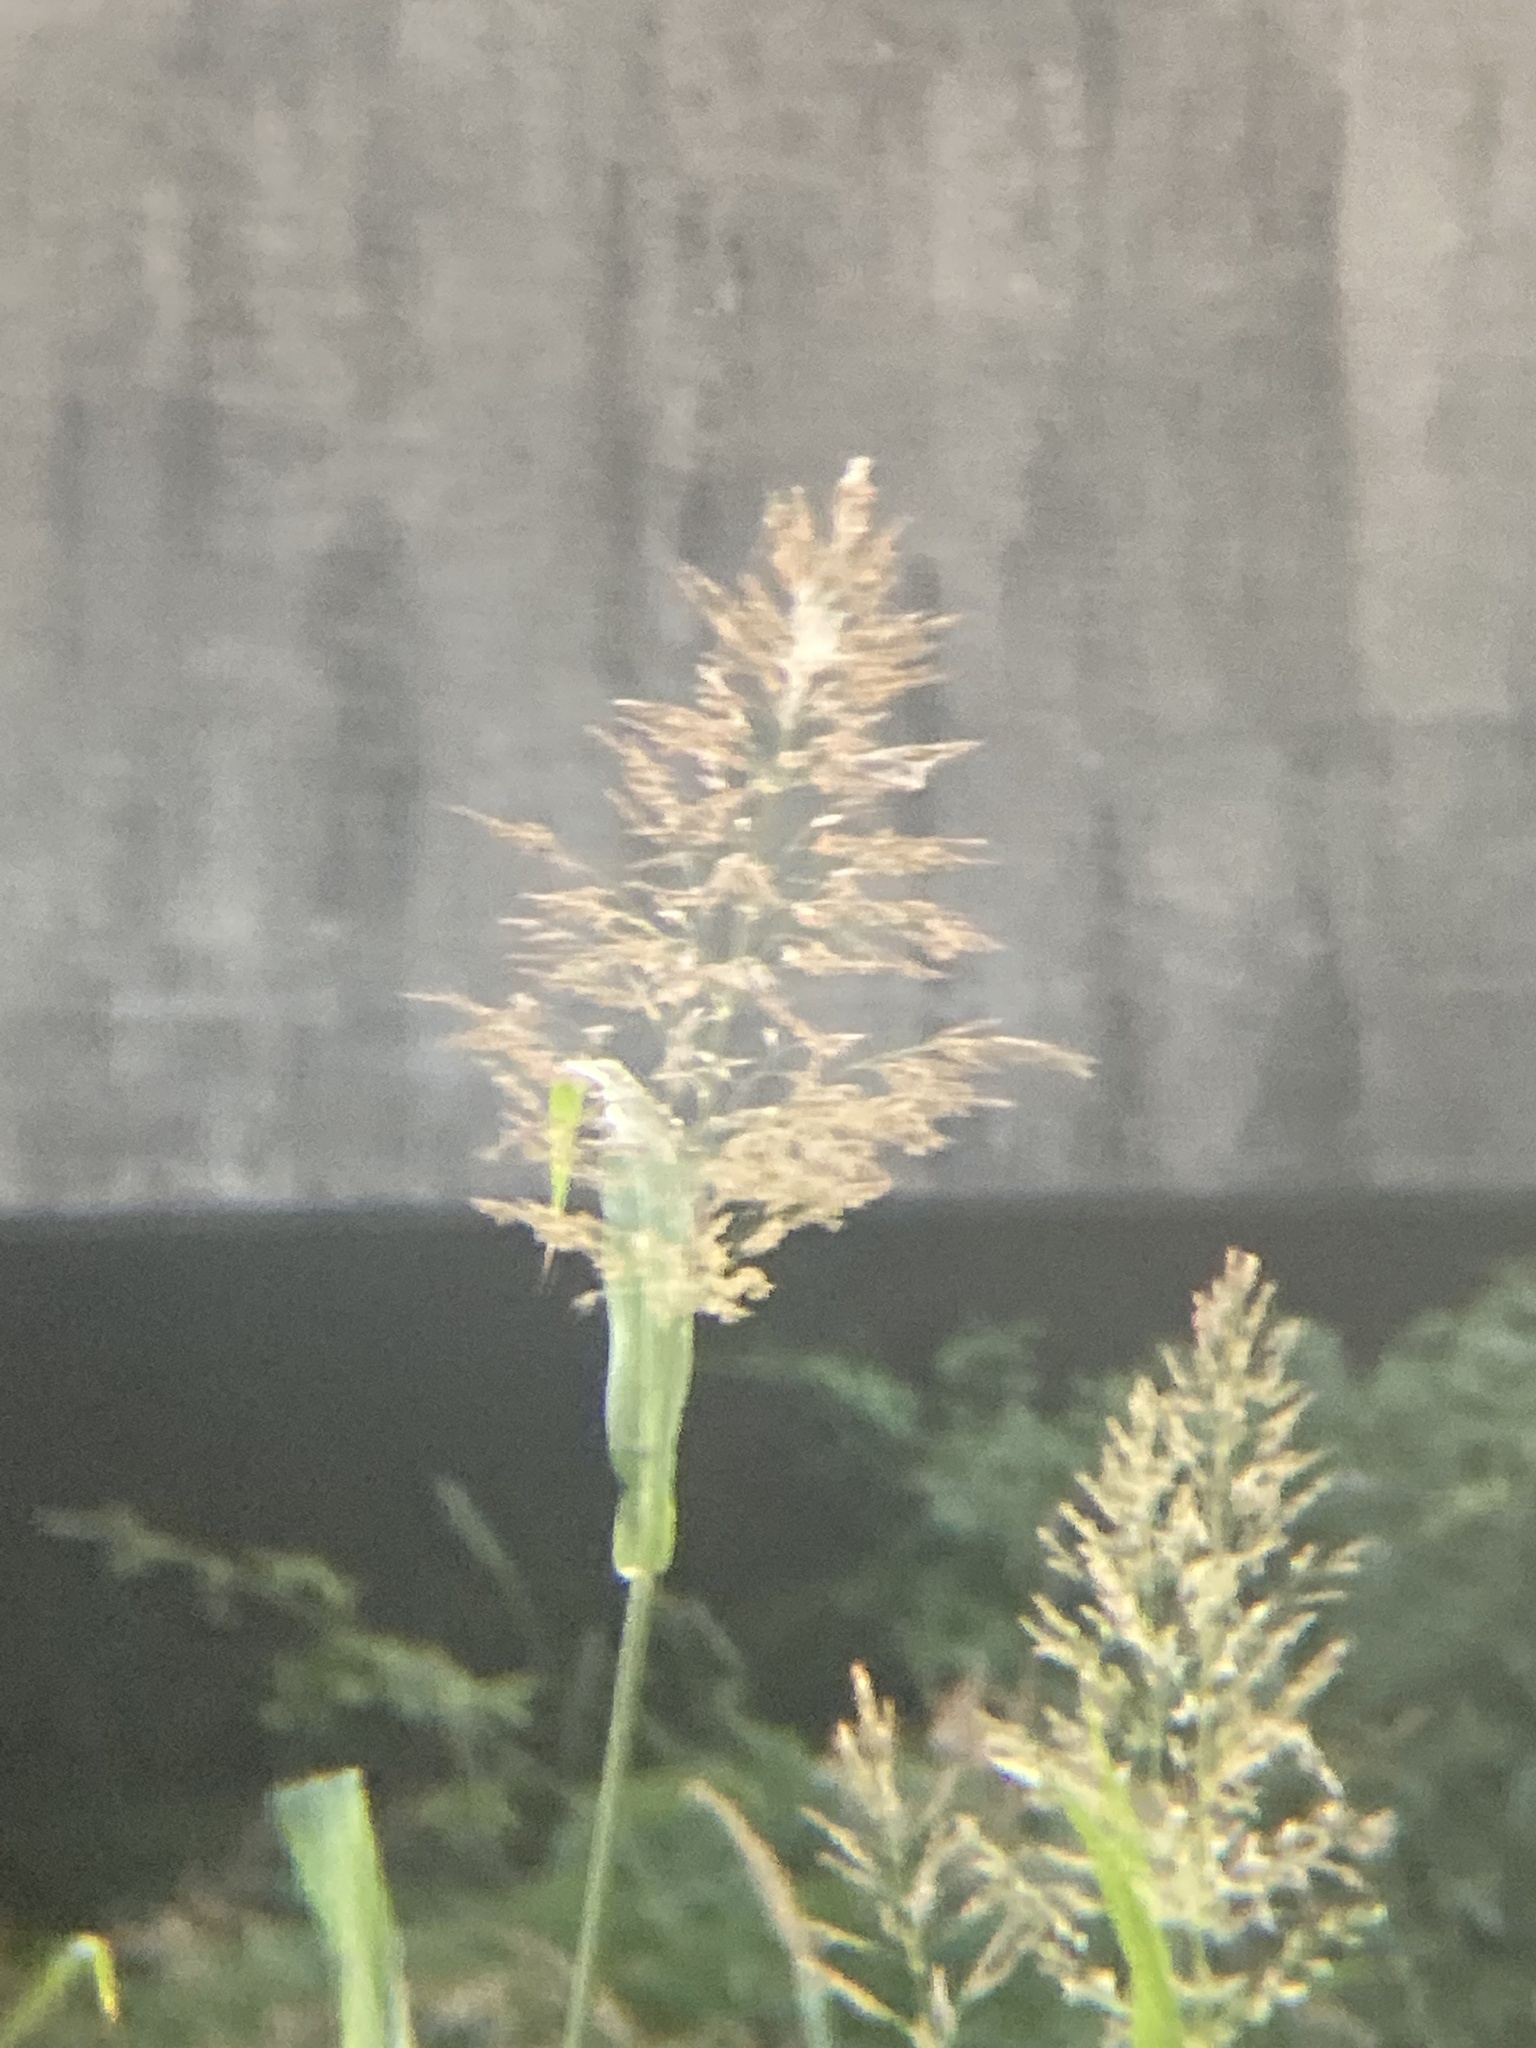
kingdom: Plantae
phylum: Tracheophyta
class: Liliopsida
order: Poales
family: Poaceae
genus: Sorghum
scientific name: Sorghum halepense
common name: Johnson-grass
